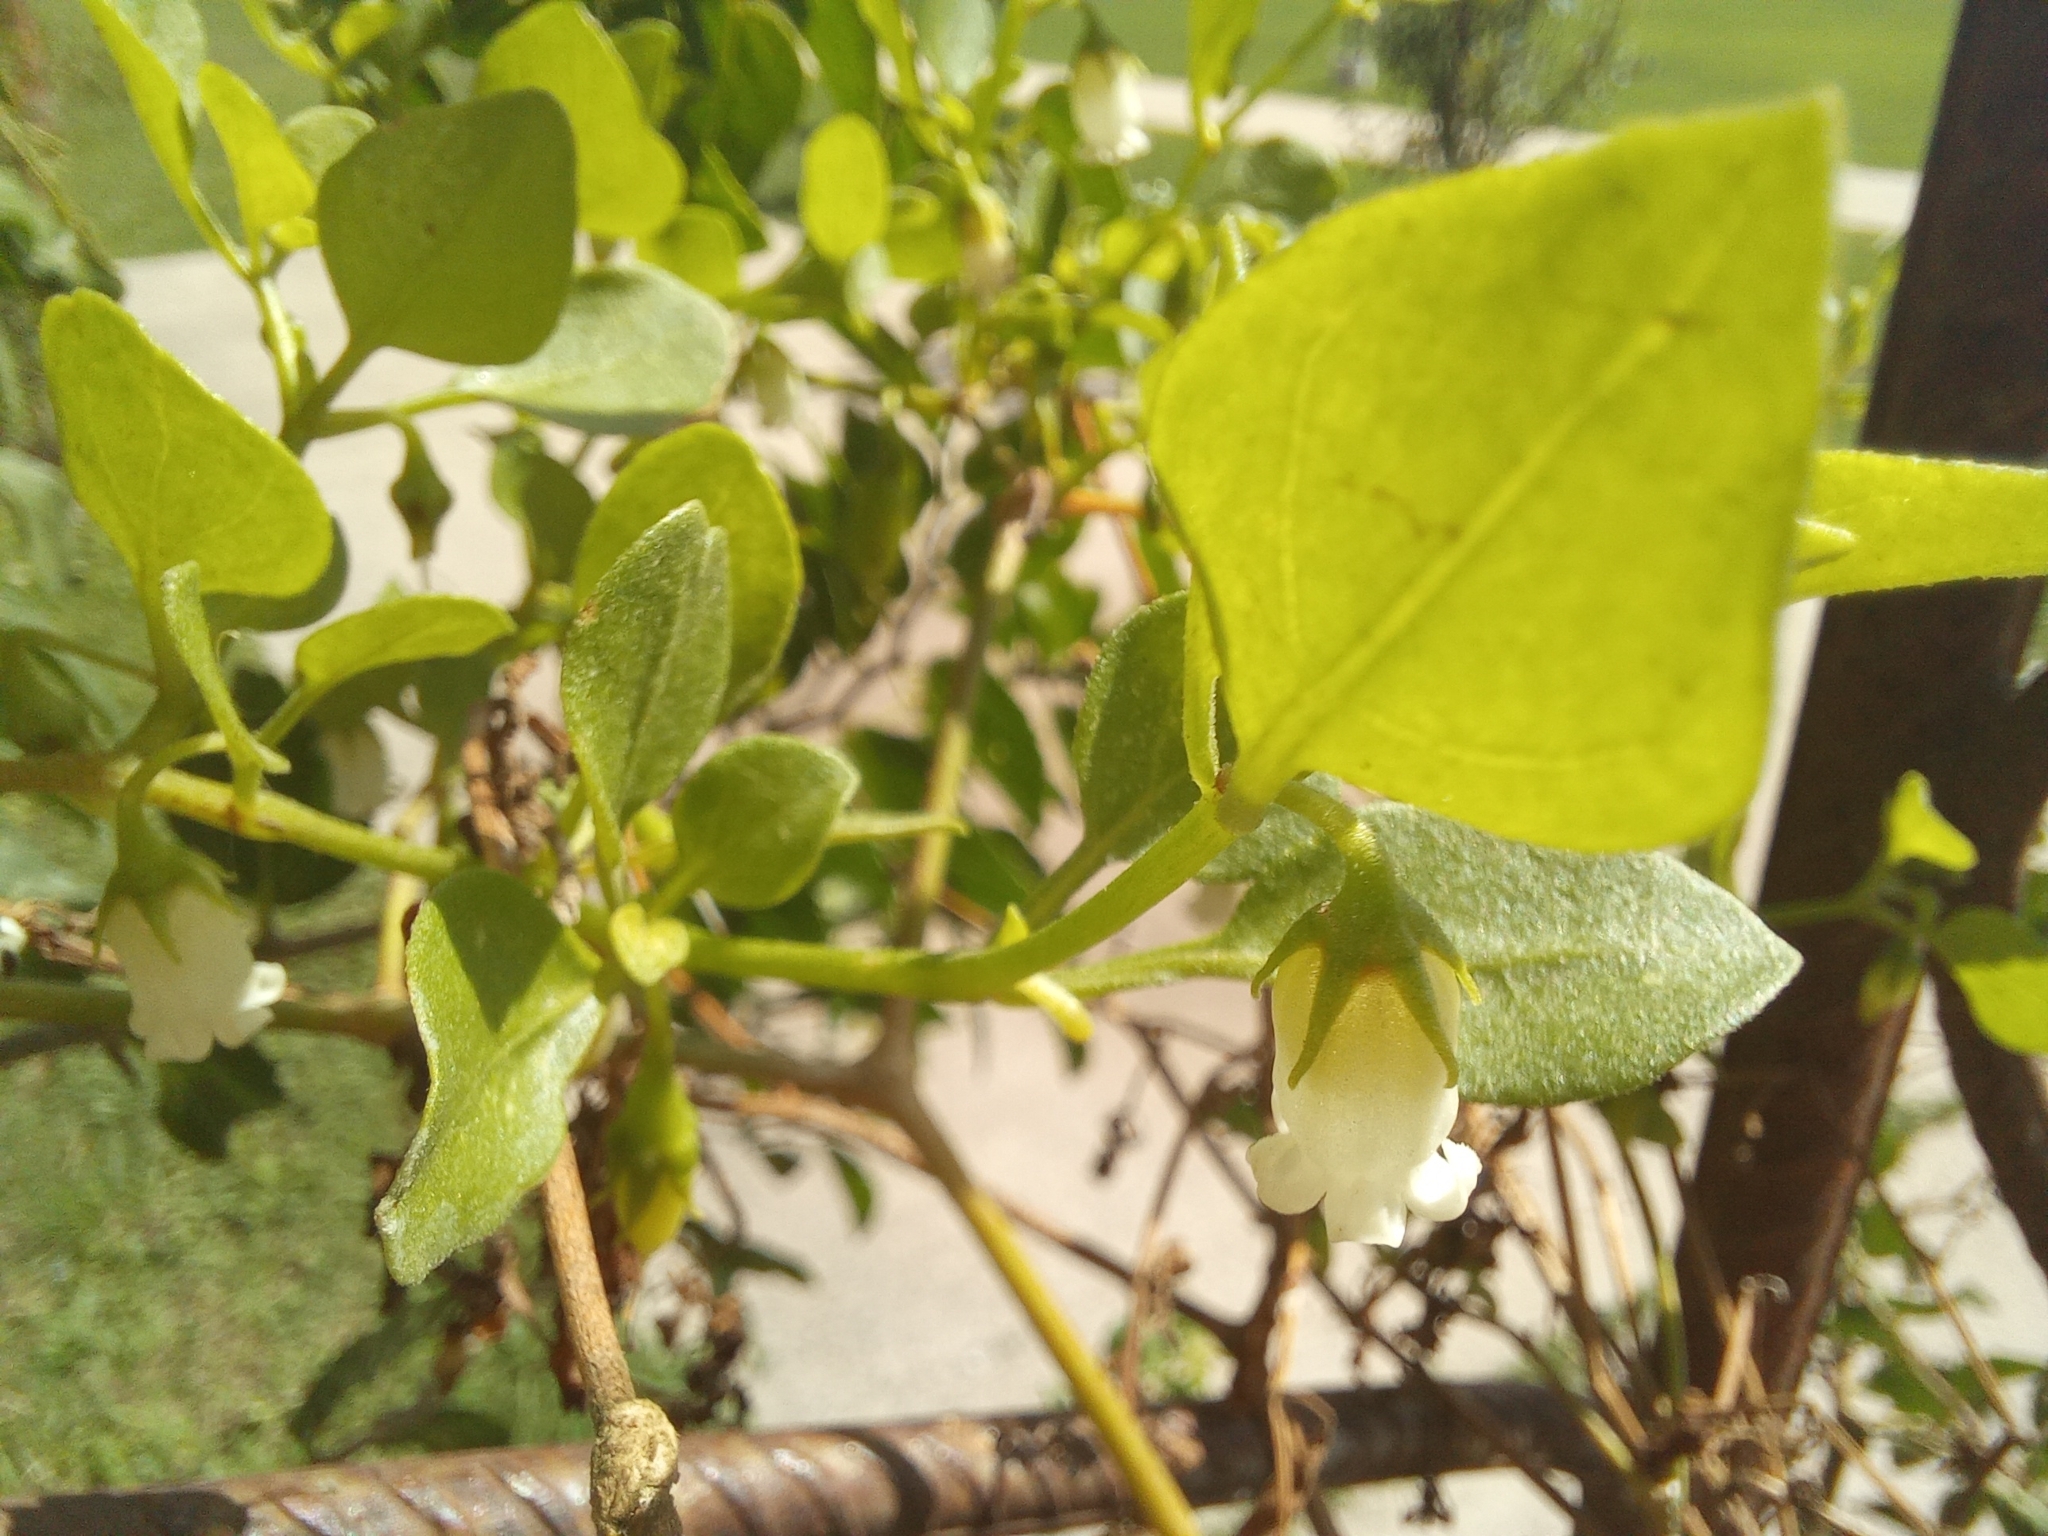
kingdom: Plantae
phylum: Tracheophyta
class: Magnoliopsida
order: Solanales
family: Solanaceae
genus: Salpichroa
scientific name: Salpichroa origanifolia
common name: Lily-of-the-valley-vine
